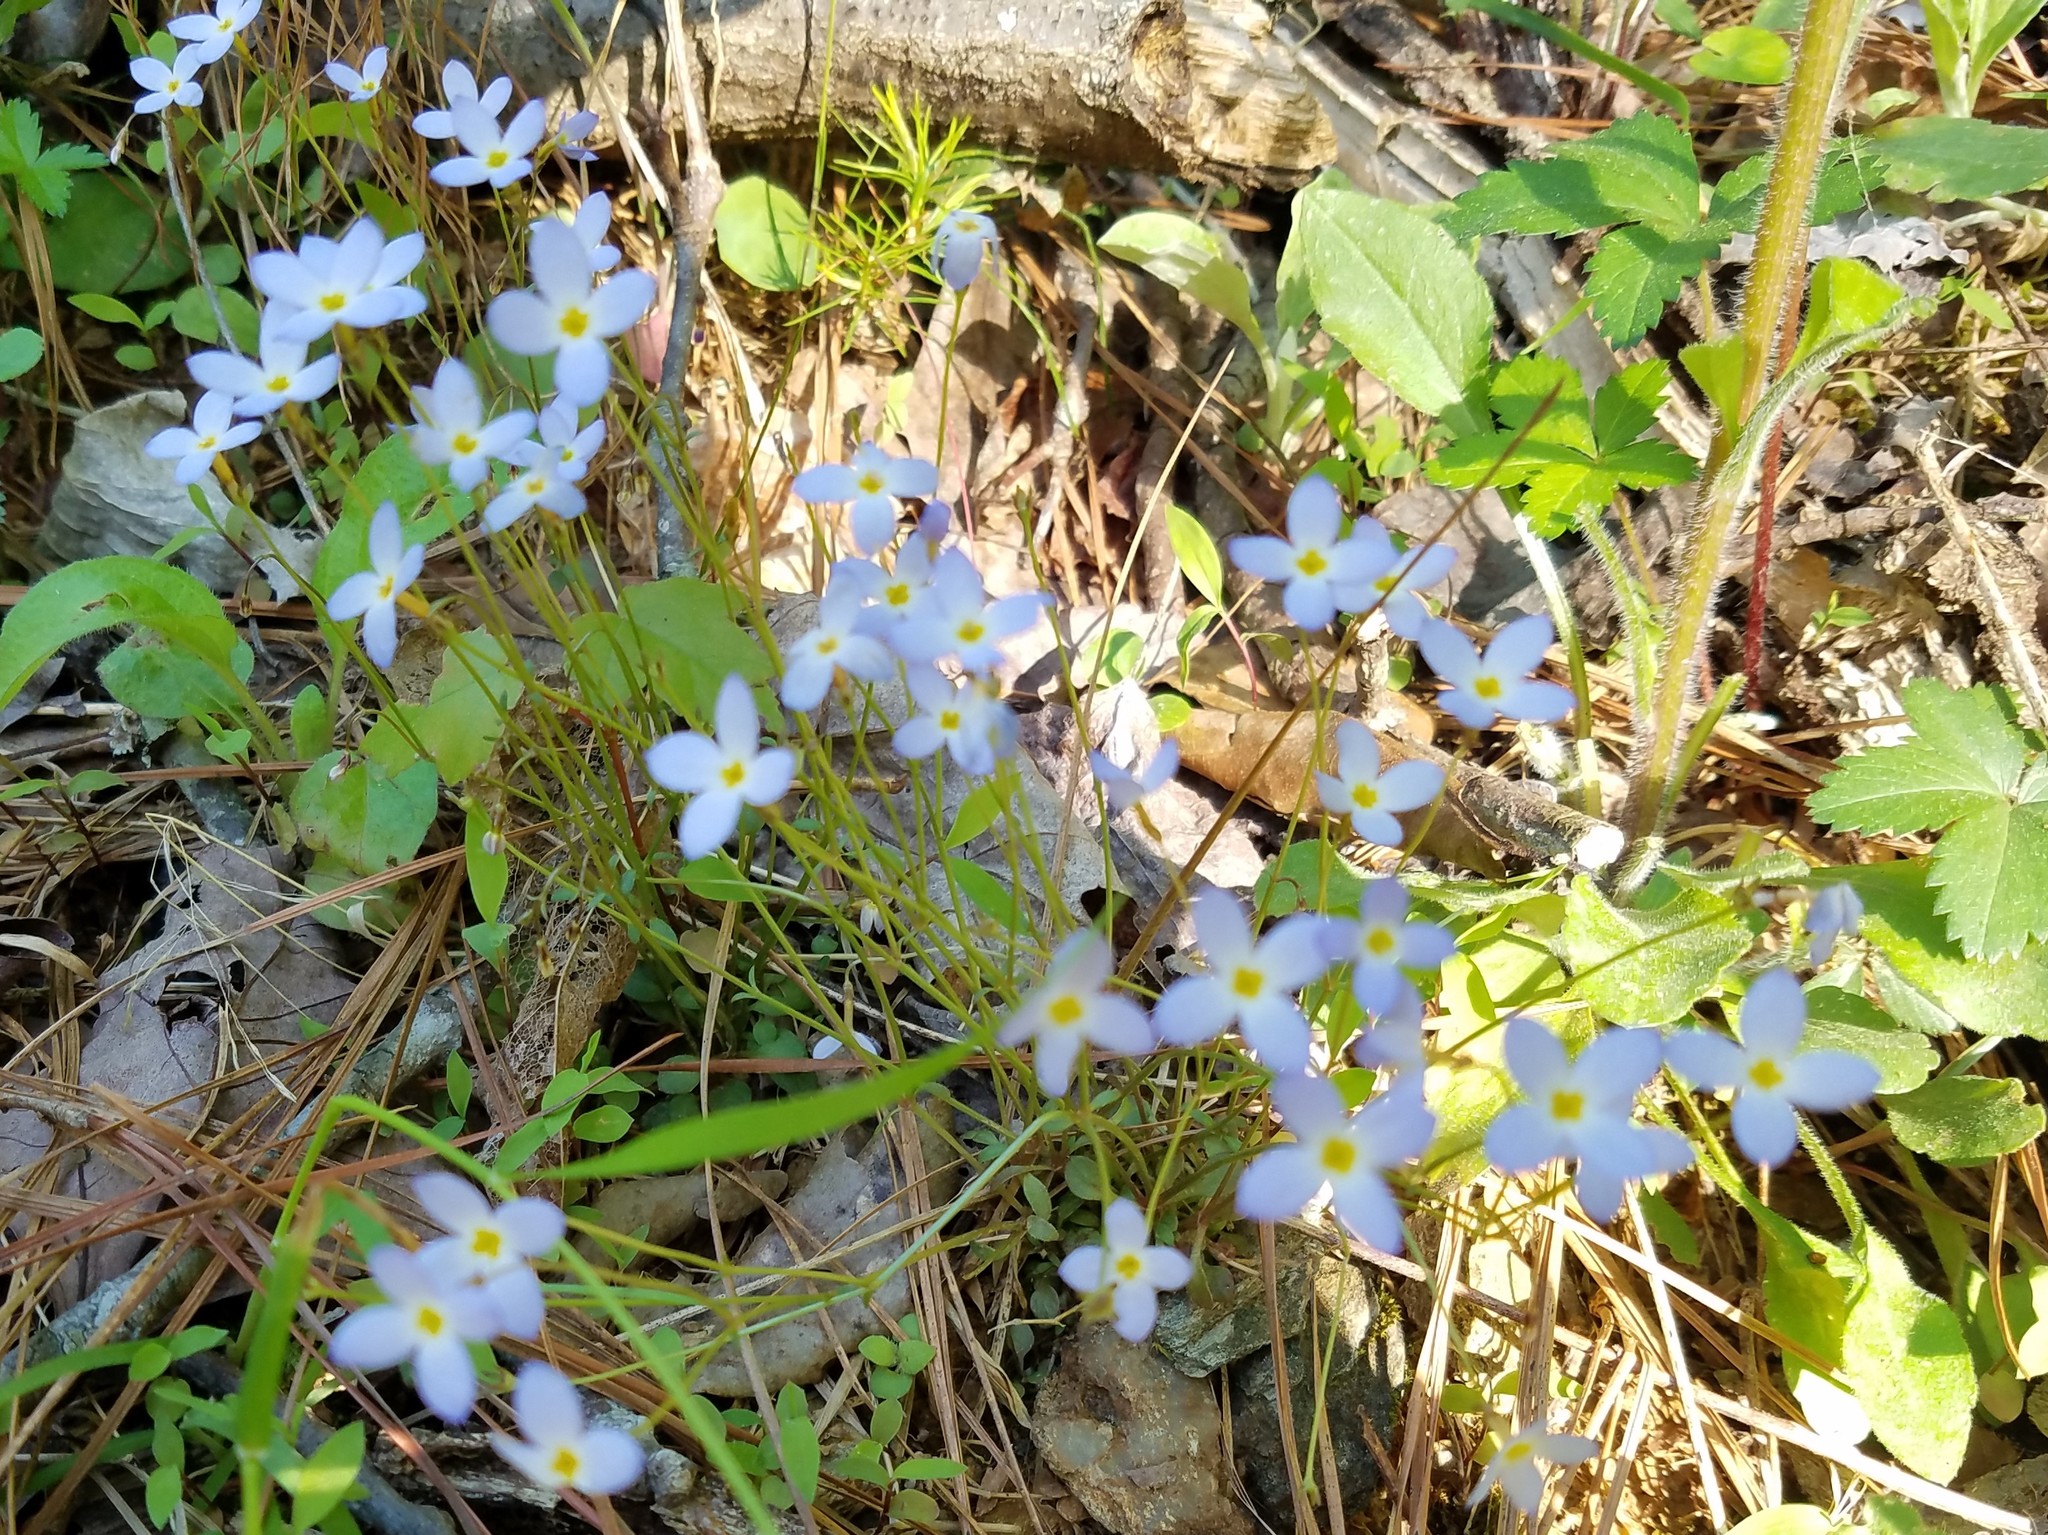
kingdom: Plantae
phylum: Tracheophyta
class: Magnoliopsida
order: Gentianales
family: Rubiaceae
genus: Houstonia
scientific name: Houstonia caerulea
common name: Bluets
